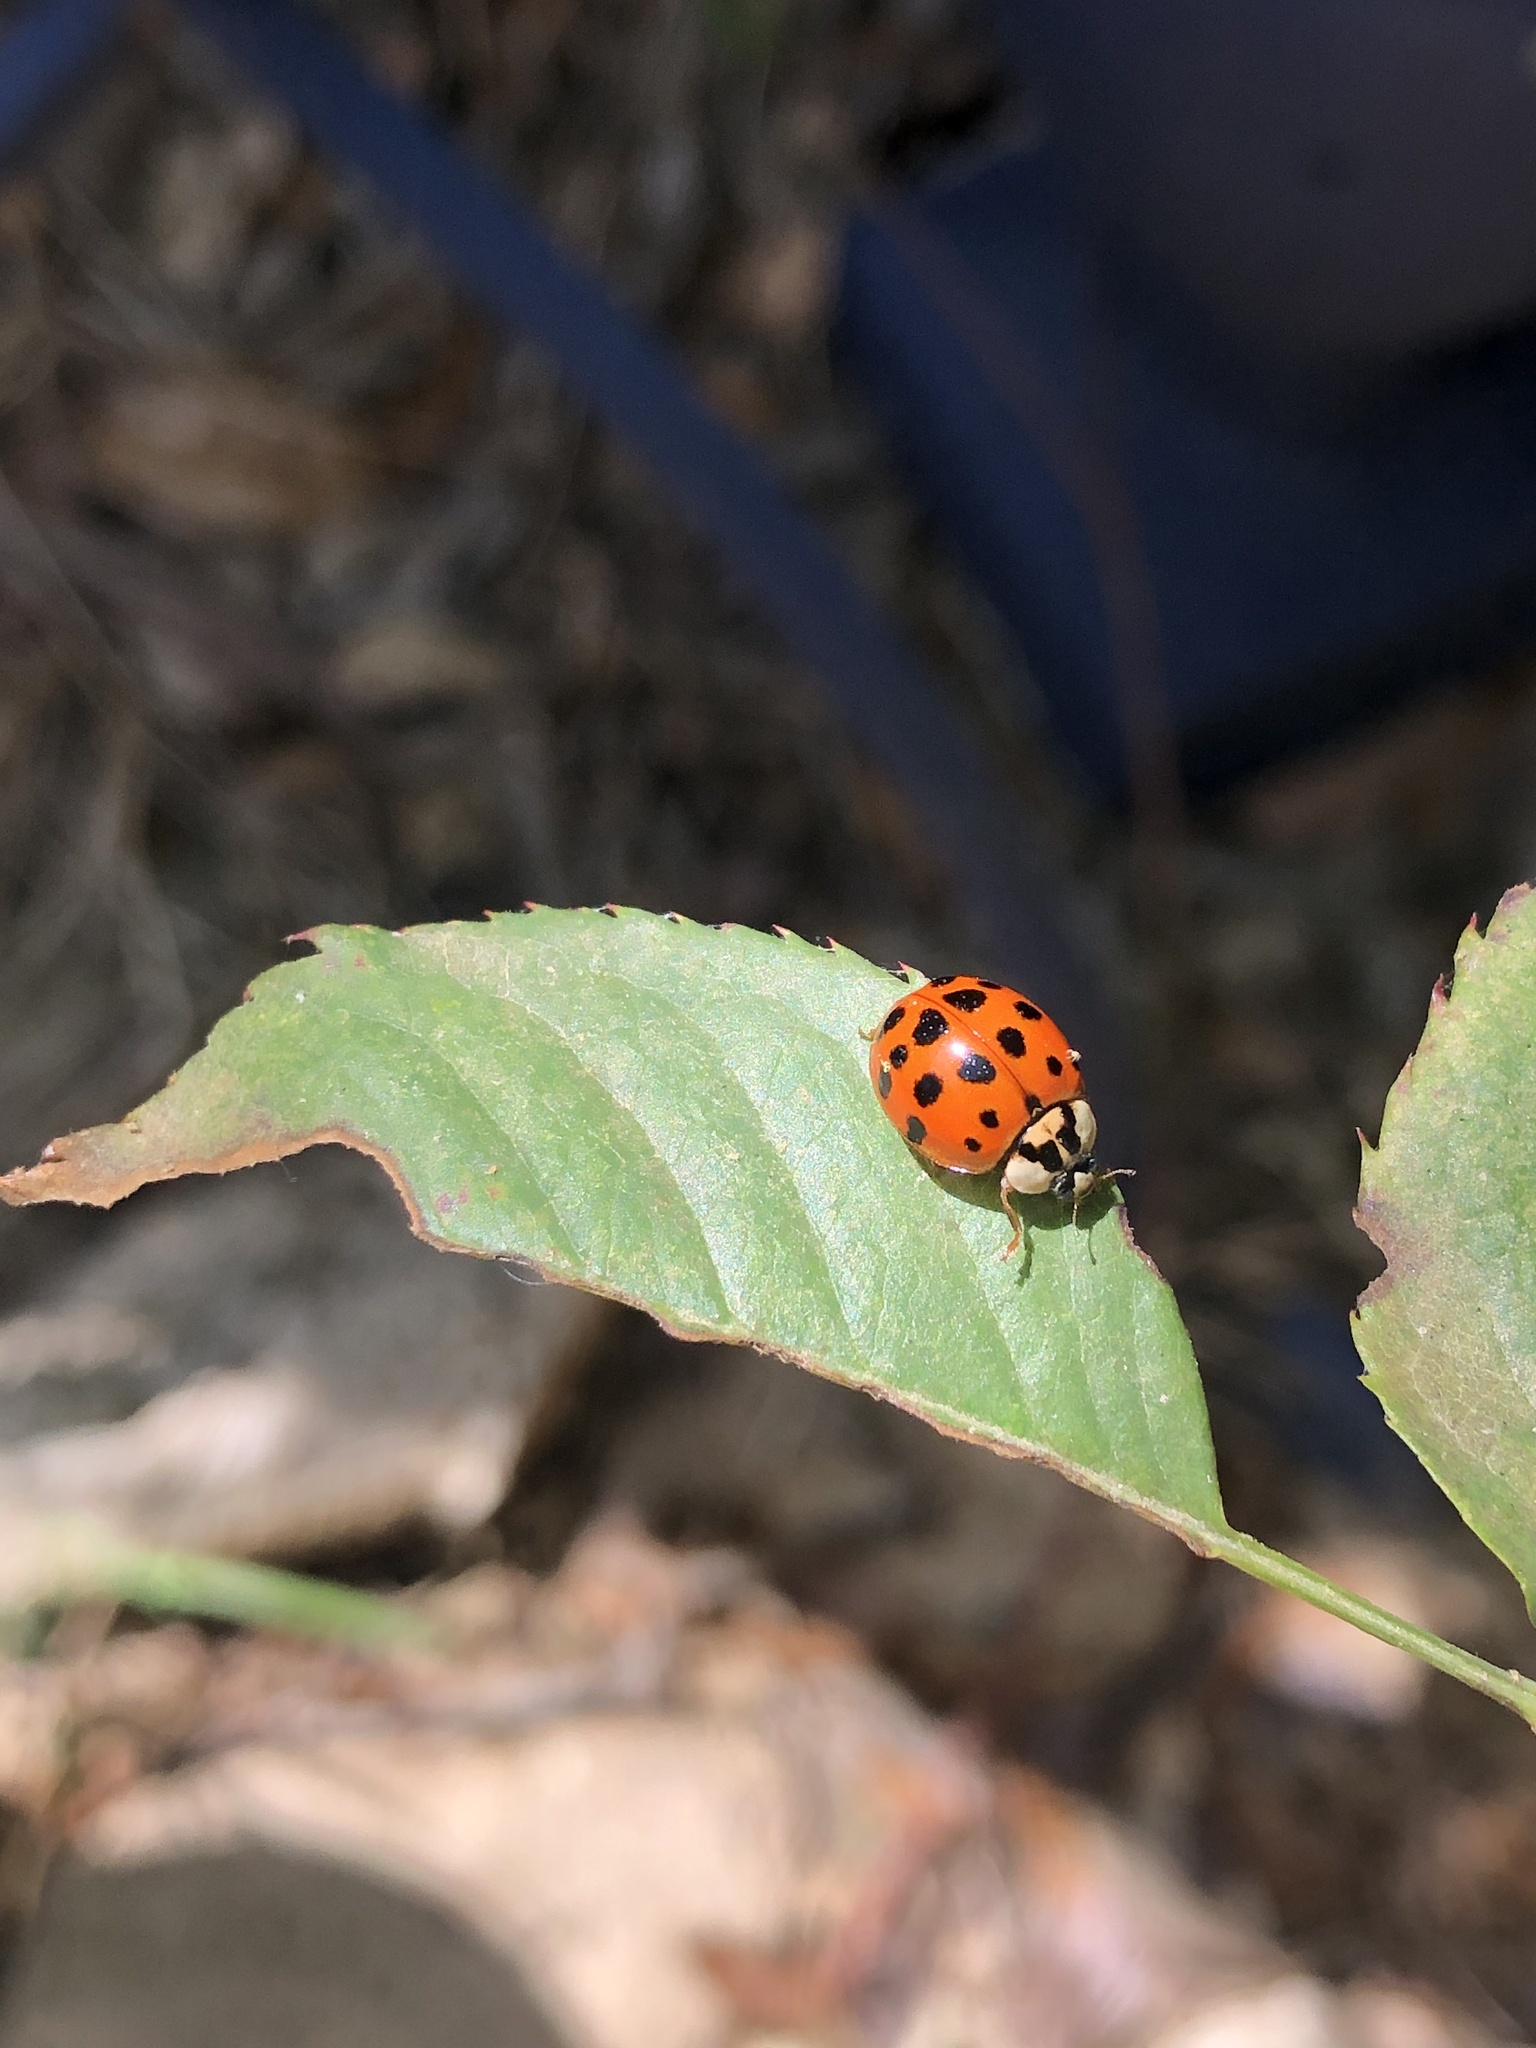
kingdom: Animalia
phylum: Arthropoda
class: Insecta
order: Coleoptera
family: Coccinellidae
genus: Harmonia
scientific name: Harmonia axyridis
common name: Harlequin ladybird
